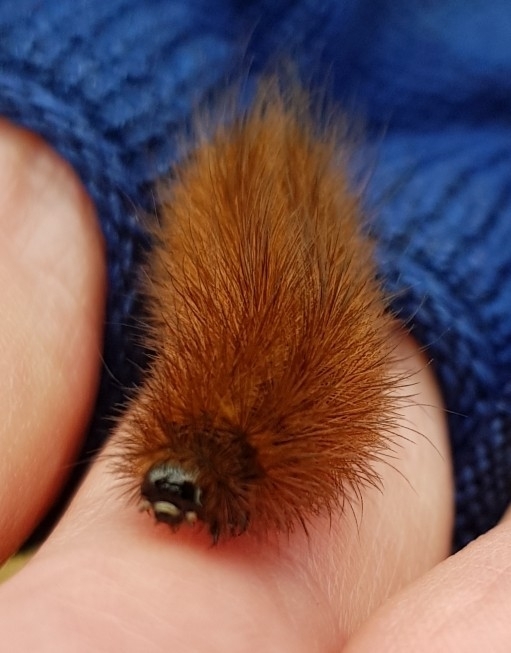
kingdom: Animalia
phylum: Arthropoda
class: Insecta
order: Lepidoptera
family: Erebidae
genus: Phragmatobia
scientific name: Phragmatobia fuliginosa
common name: Ruby tiger
